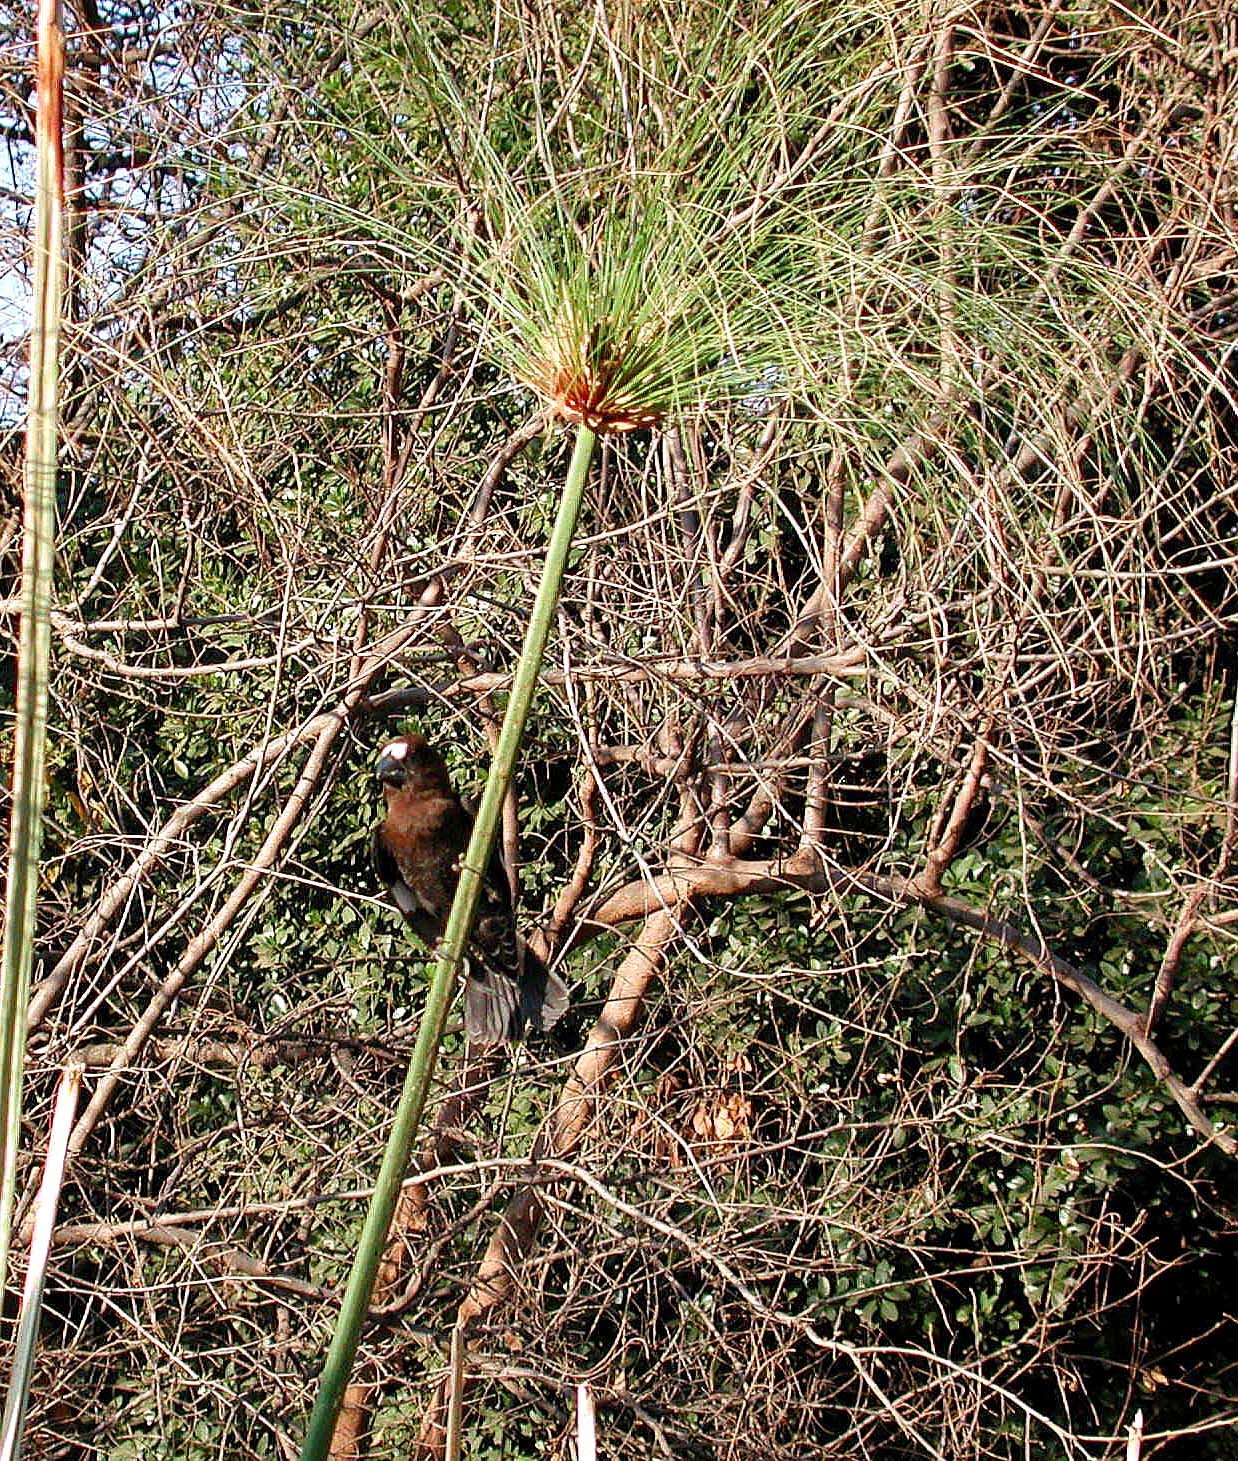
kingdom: Animalia
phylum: Chordata
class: Aves
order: Passeriformes
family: Ploceidae
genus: Amblyospiza
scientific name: Amblyospiza albifrons
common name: Thick-billed weaver
